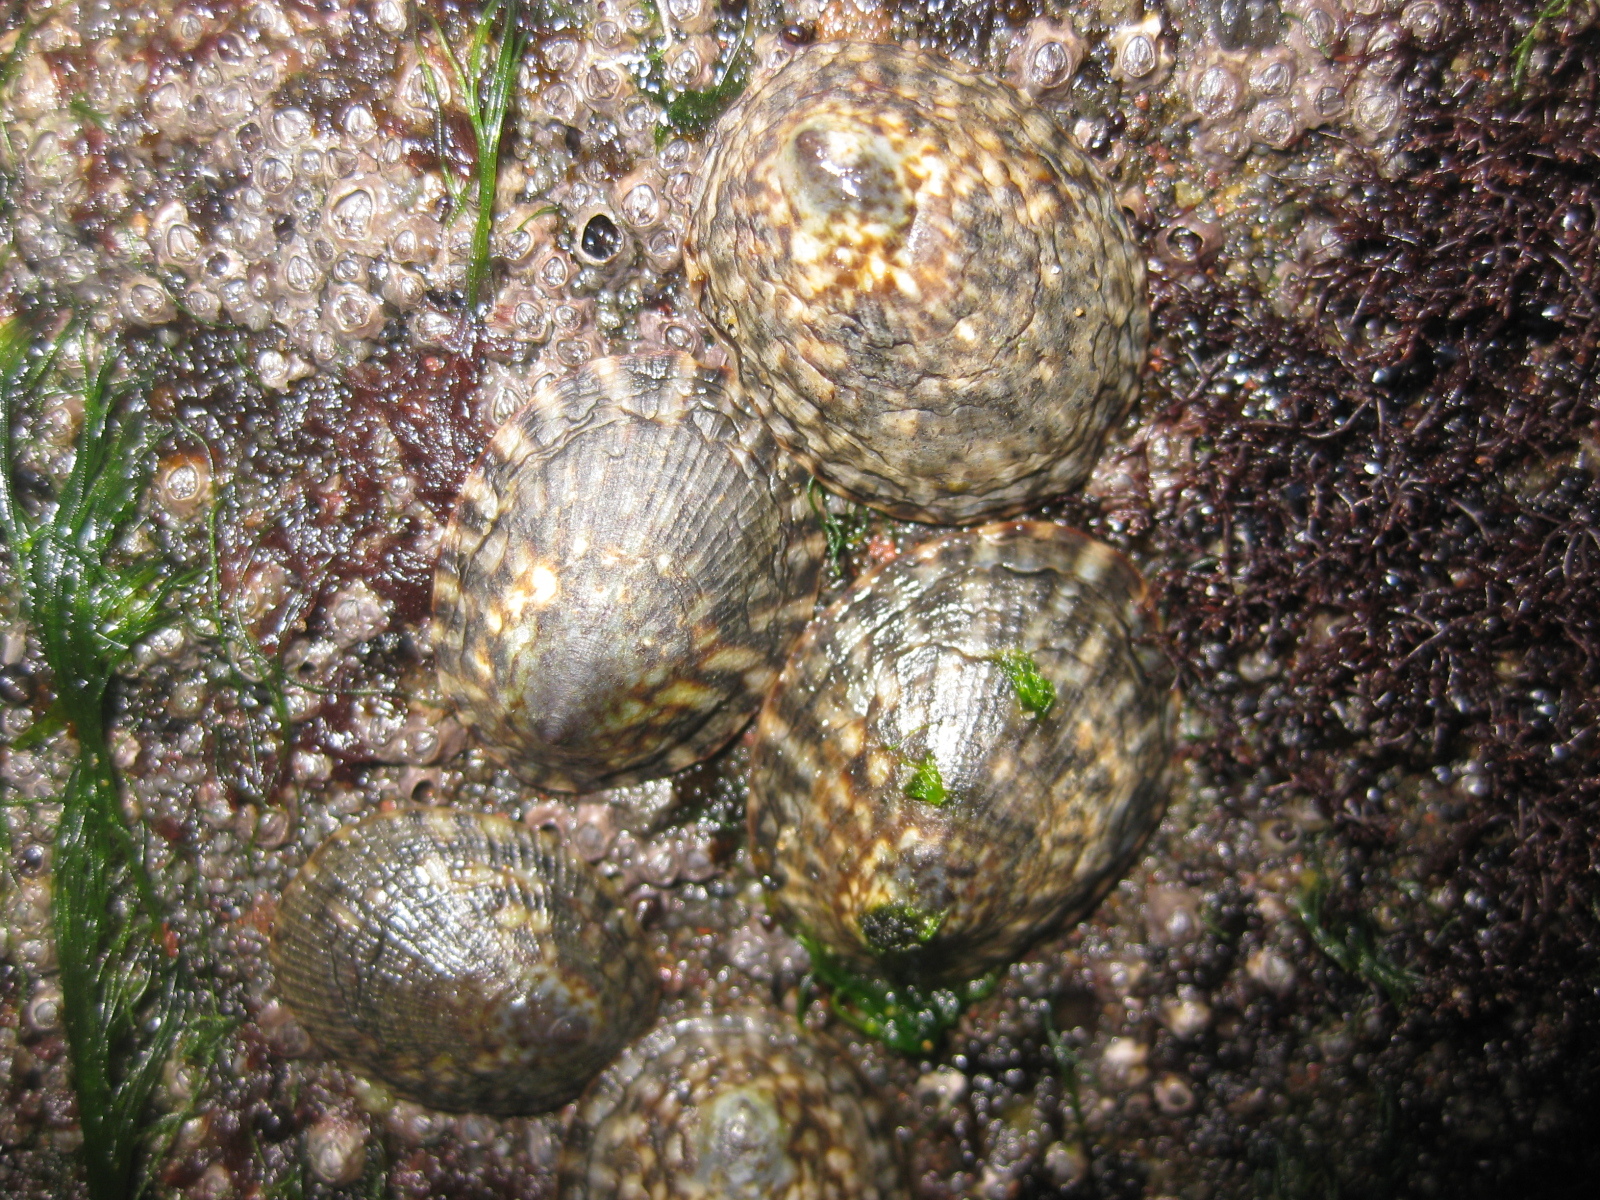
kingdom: Animalia
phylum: Mollusca
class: Gastropoda
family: Lottiidae
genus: Notoacmea
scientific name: Notoacmea pileopsis
